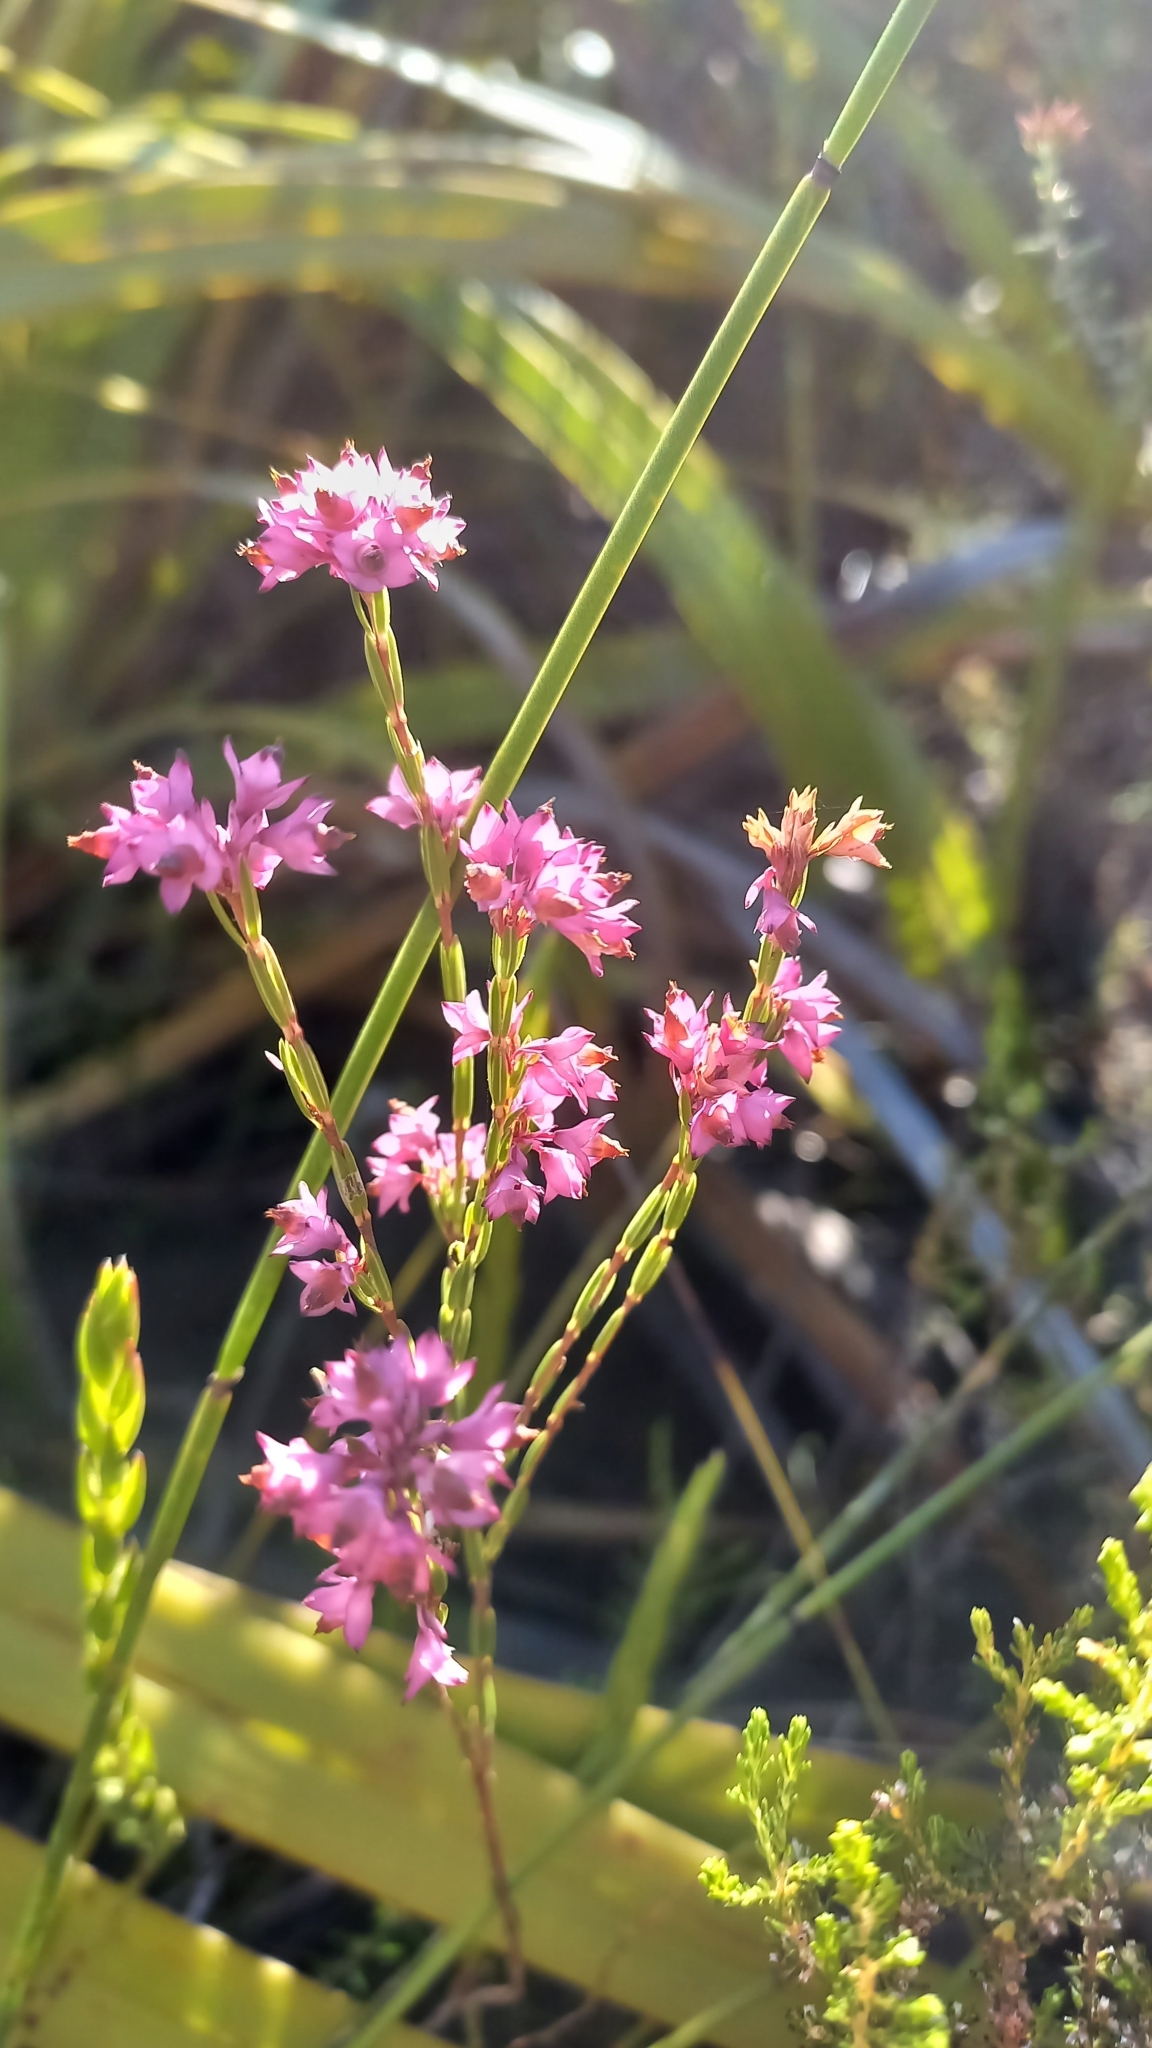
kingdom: Plantae
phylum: Tracheophyta
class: Magnoliopsida
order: Ericales
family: Ericaceae
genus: Erica
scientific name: Erica corifolia
